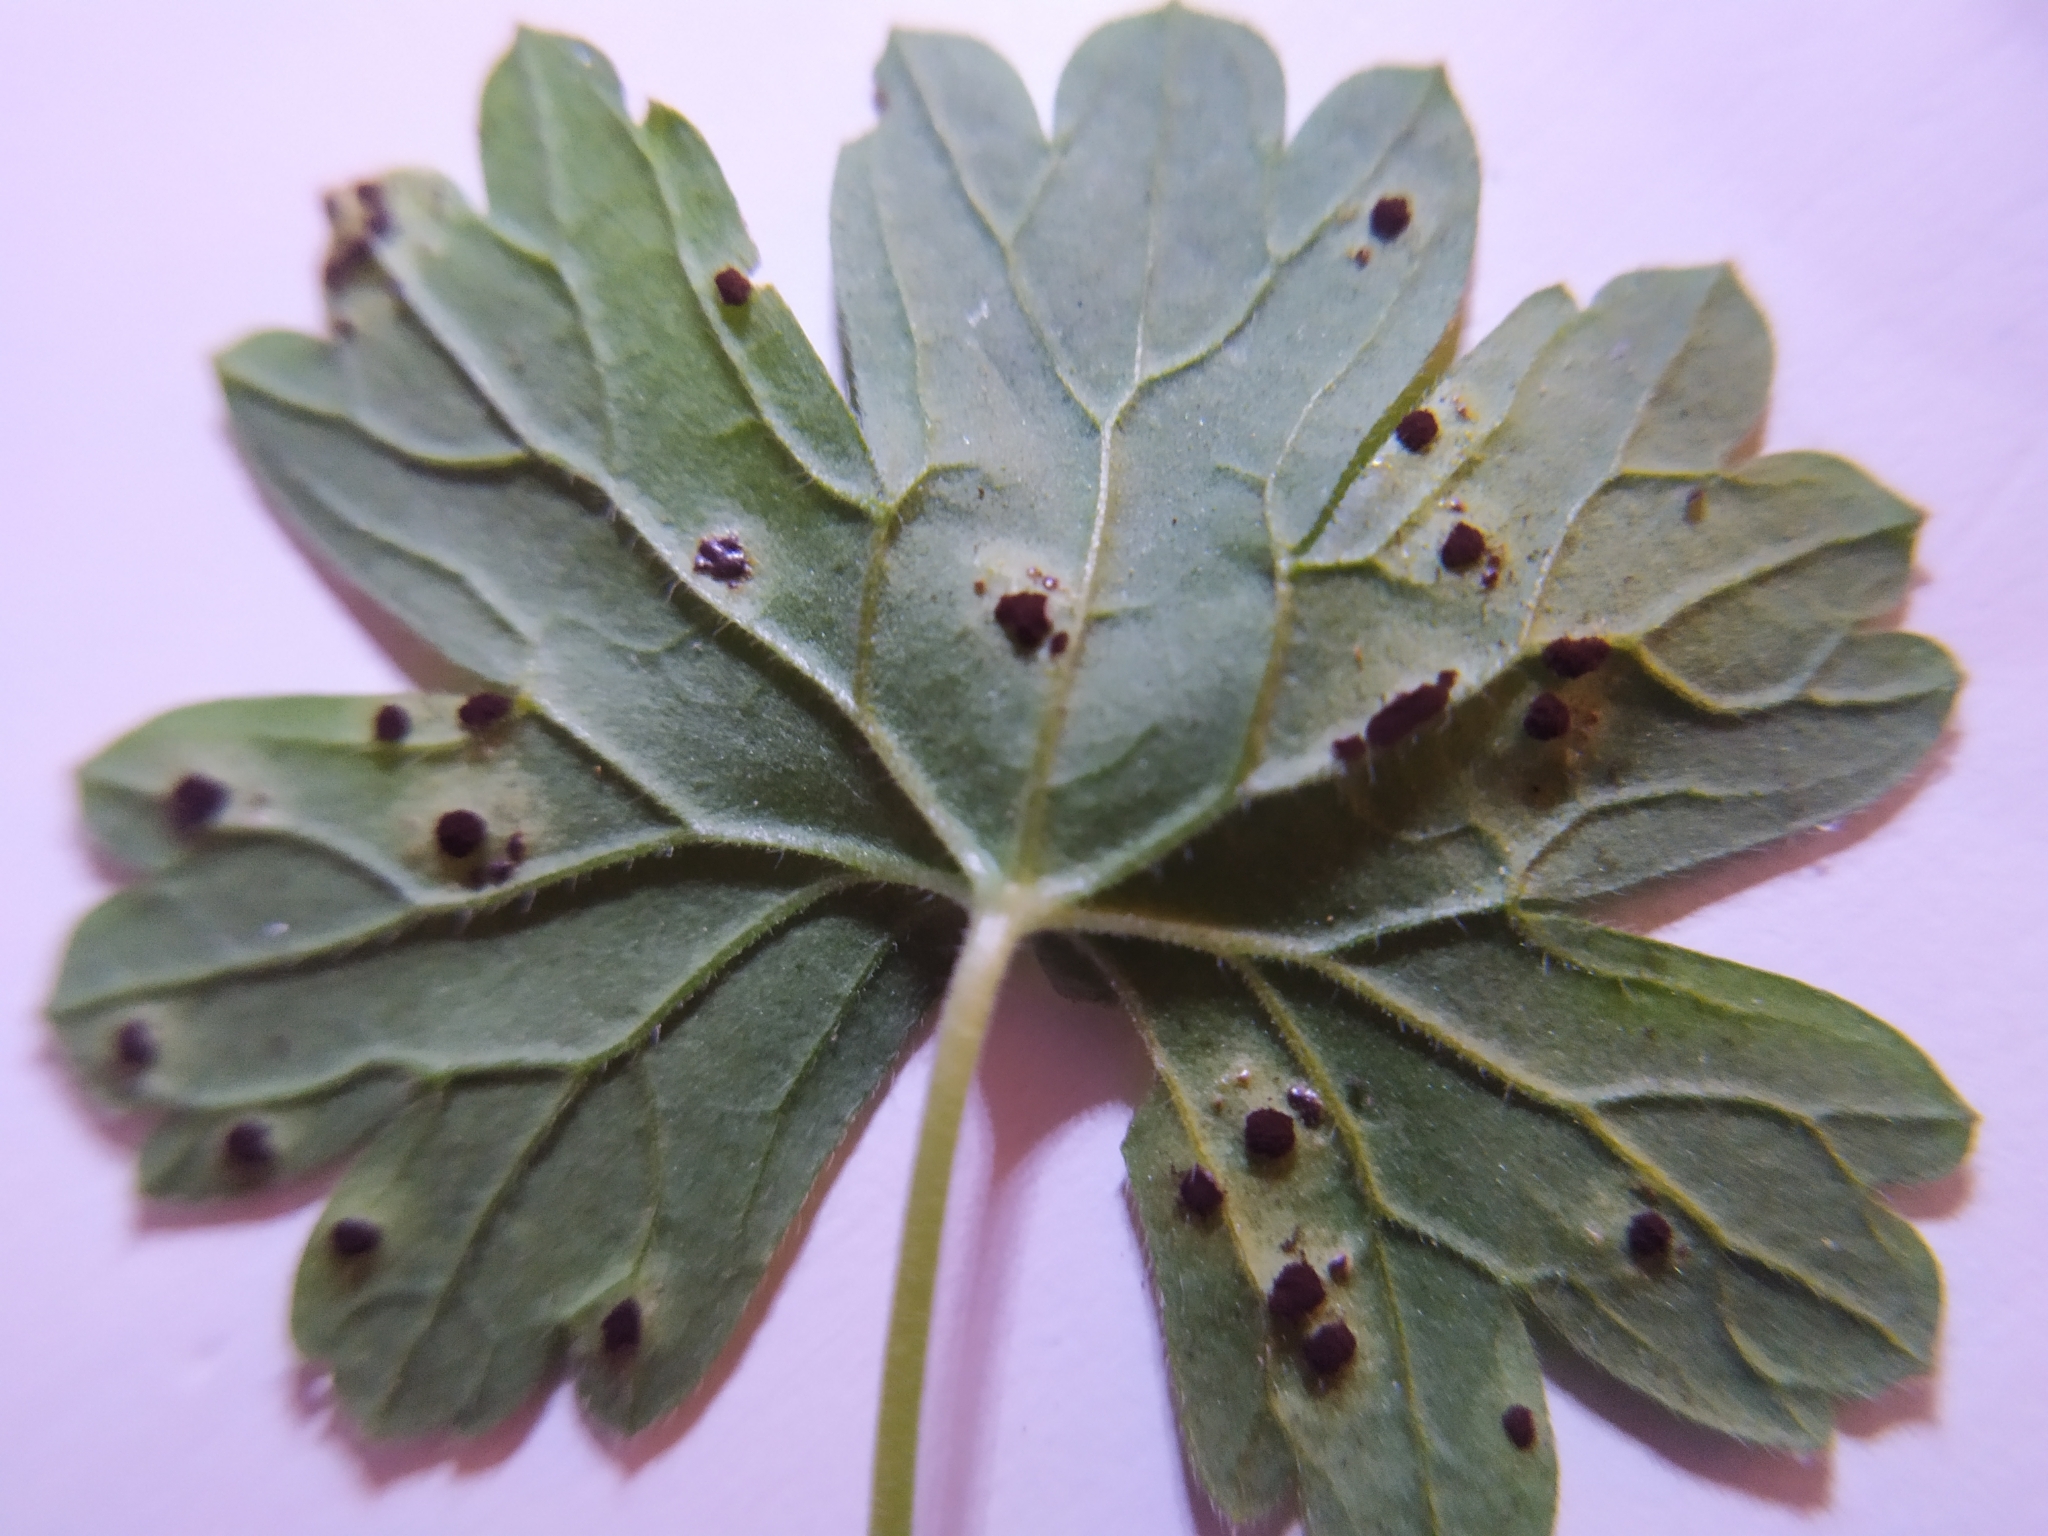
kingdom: Fungi
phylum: Basidiomycota
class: Pucciniomycetes
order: Pucciniales
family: Pucciniaceae
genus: Uromyces
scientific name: Uromyces geranii
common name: Geranium rust
